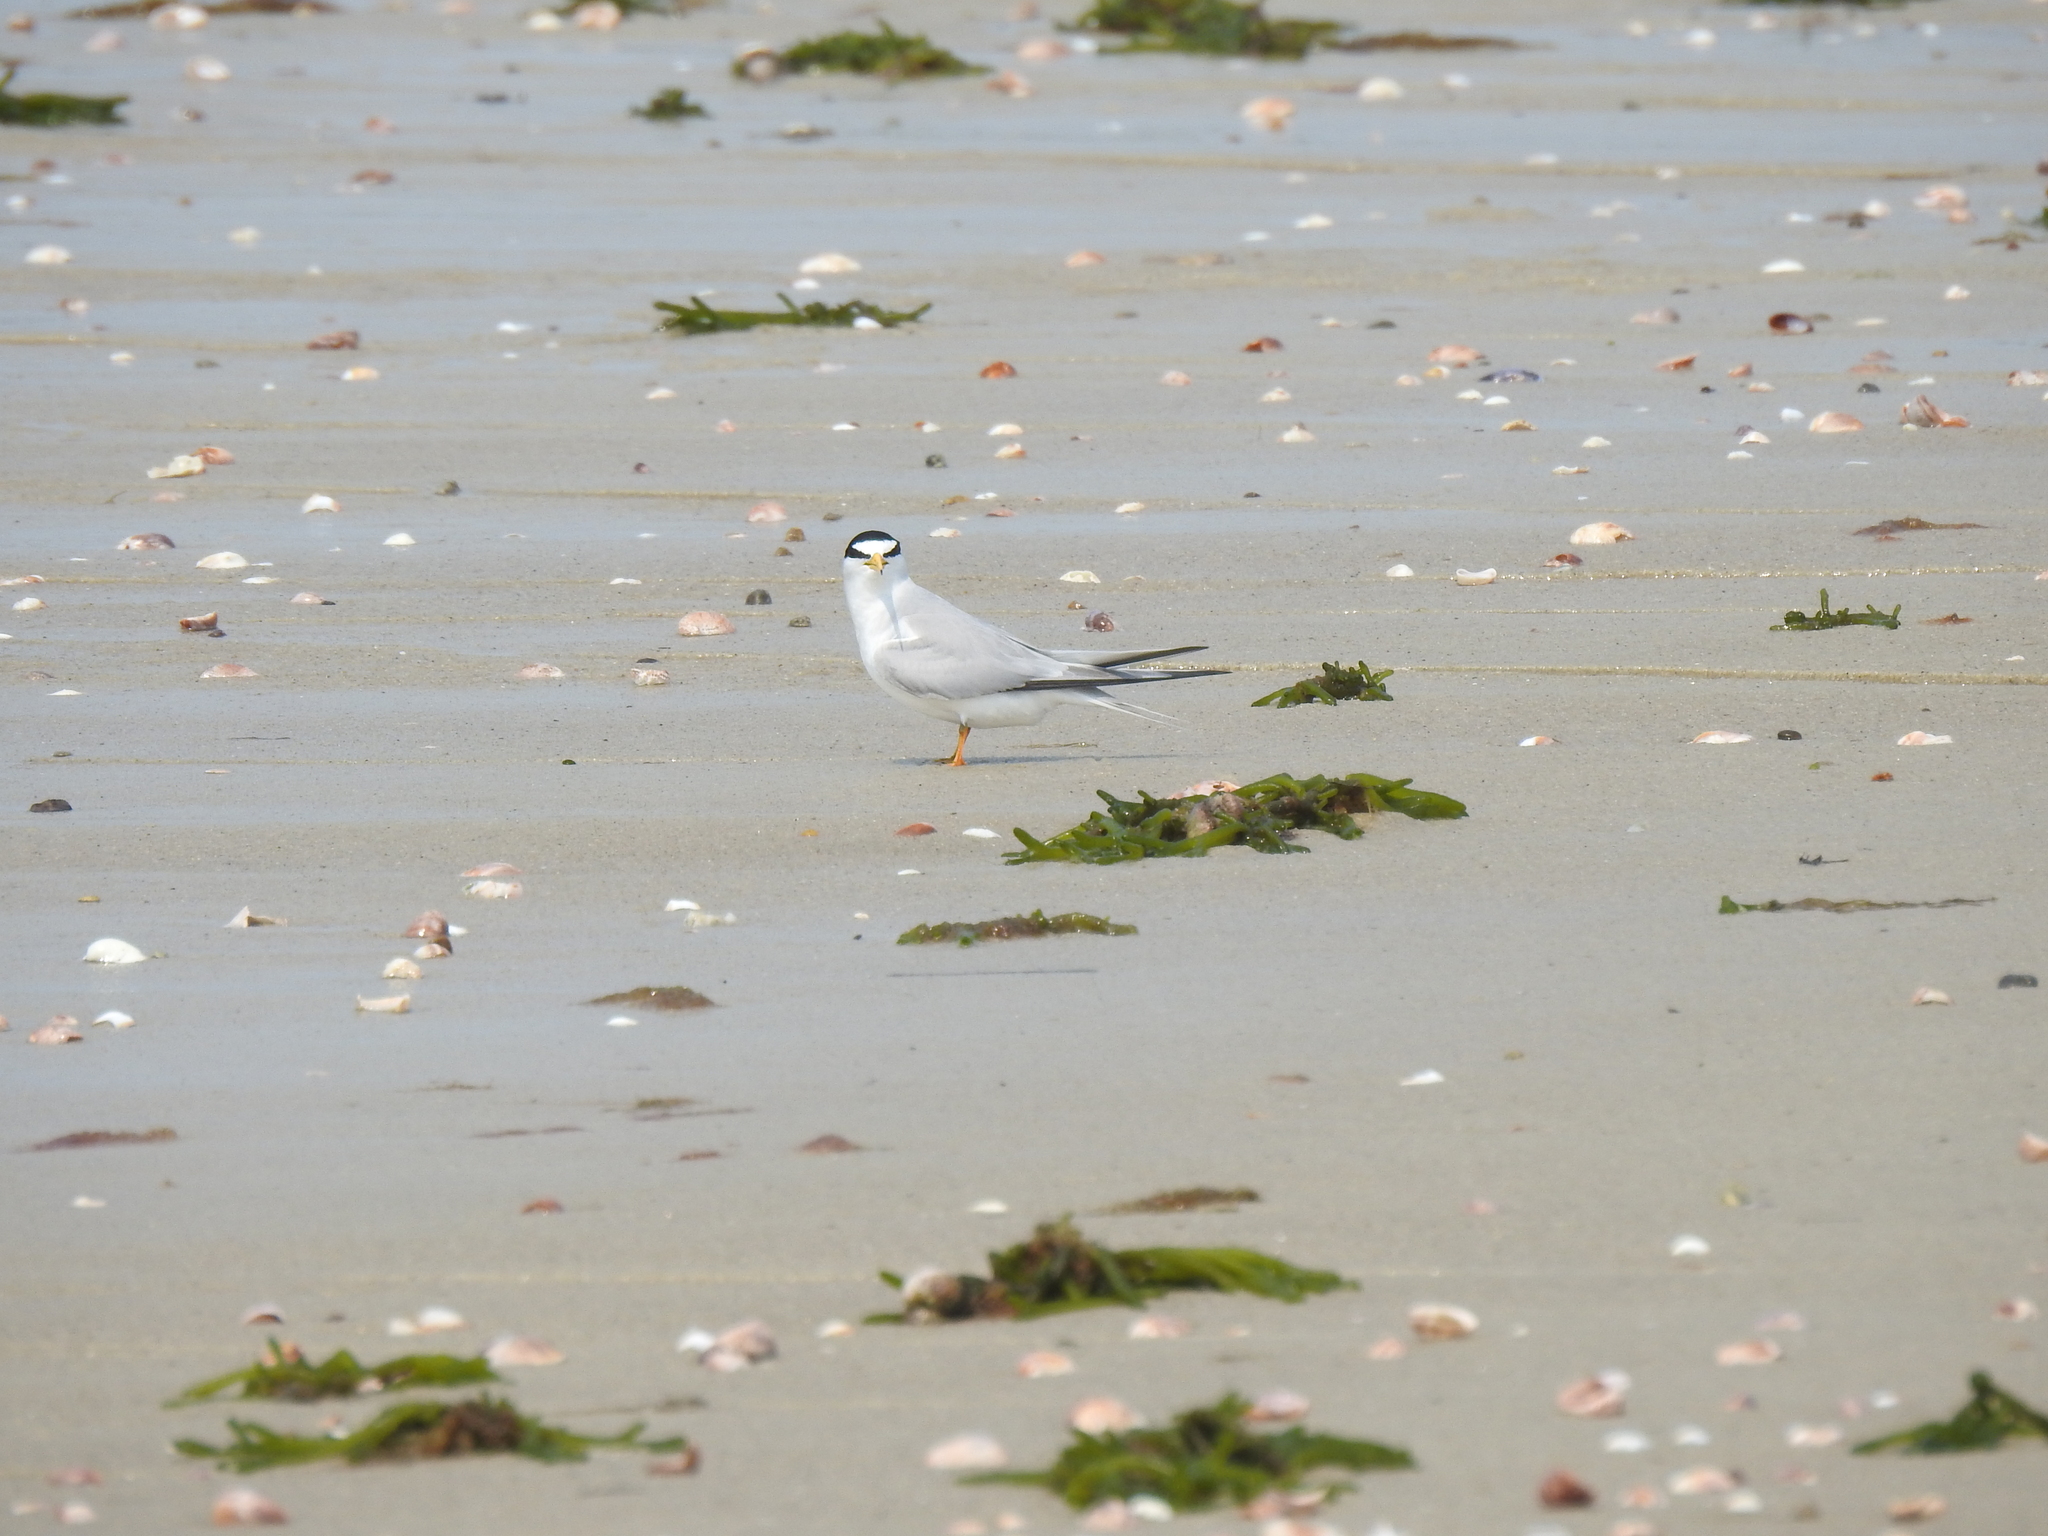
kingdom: Animalia
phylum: Chordata
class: Aves
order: Charadriiformes
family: Laridae
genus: Sternula
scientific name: Sternula antillarum
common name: Least tern
